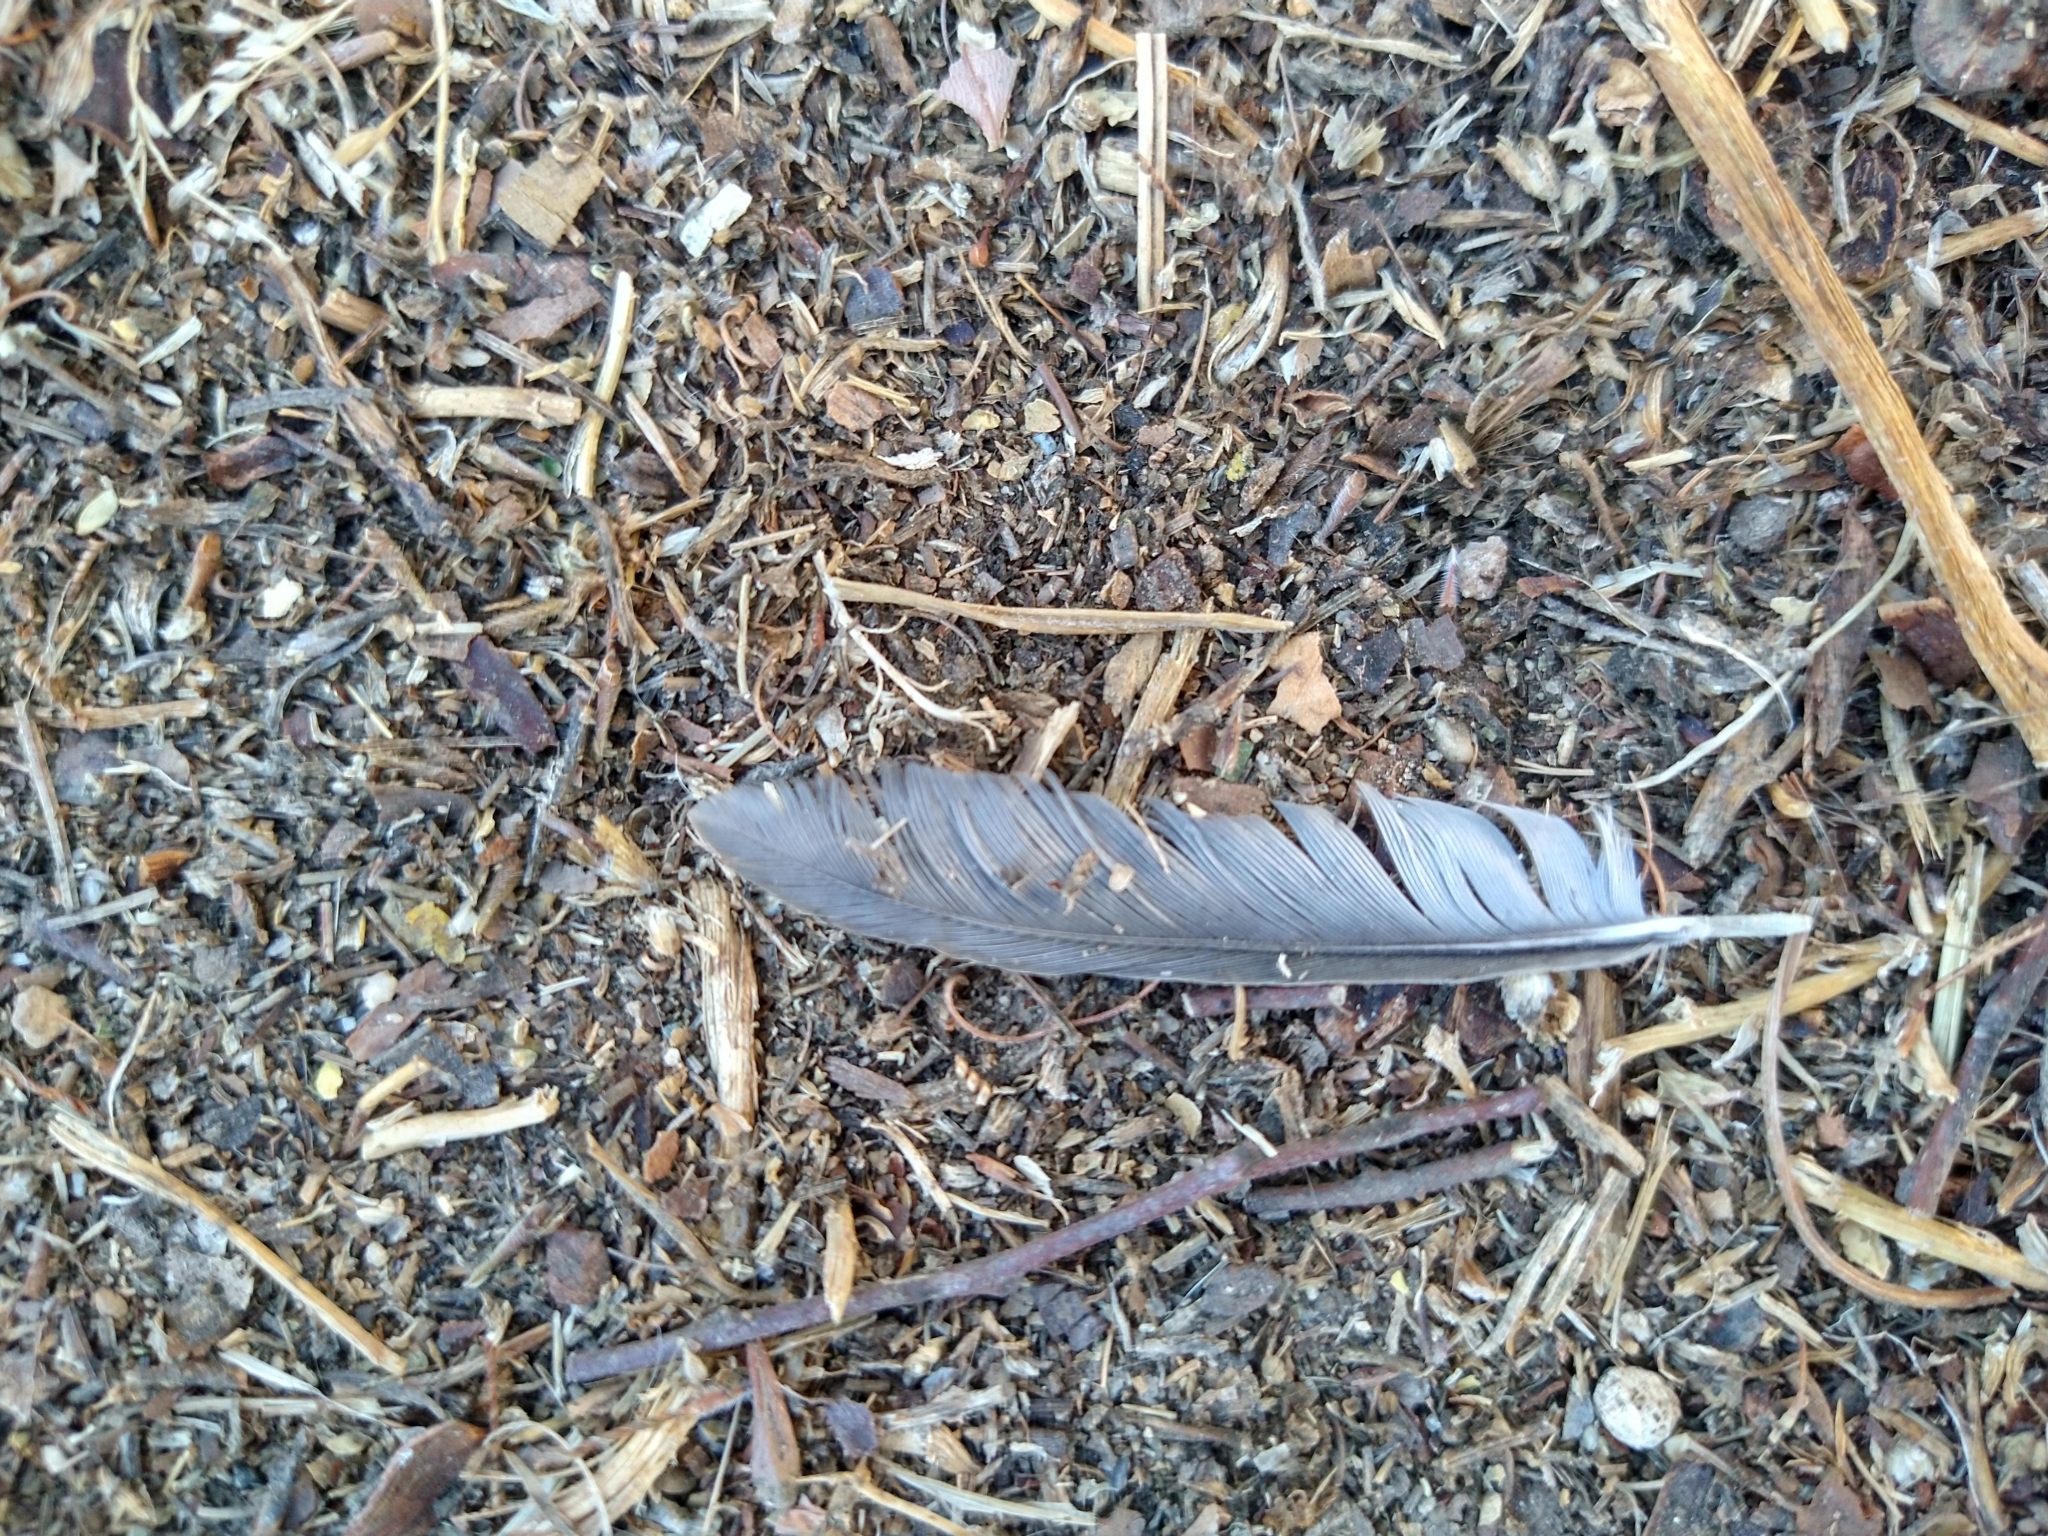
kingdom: Animalia
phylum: Chordata
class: Aves
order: Passeriformes
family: Corvidae
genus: Aphelocoma
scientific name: Aphelocoma californica
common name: California scrub-jay
